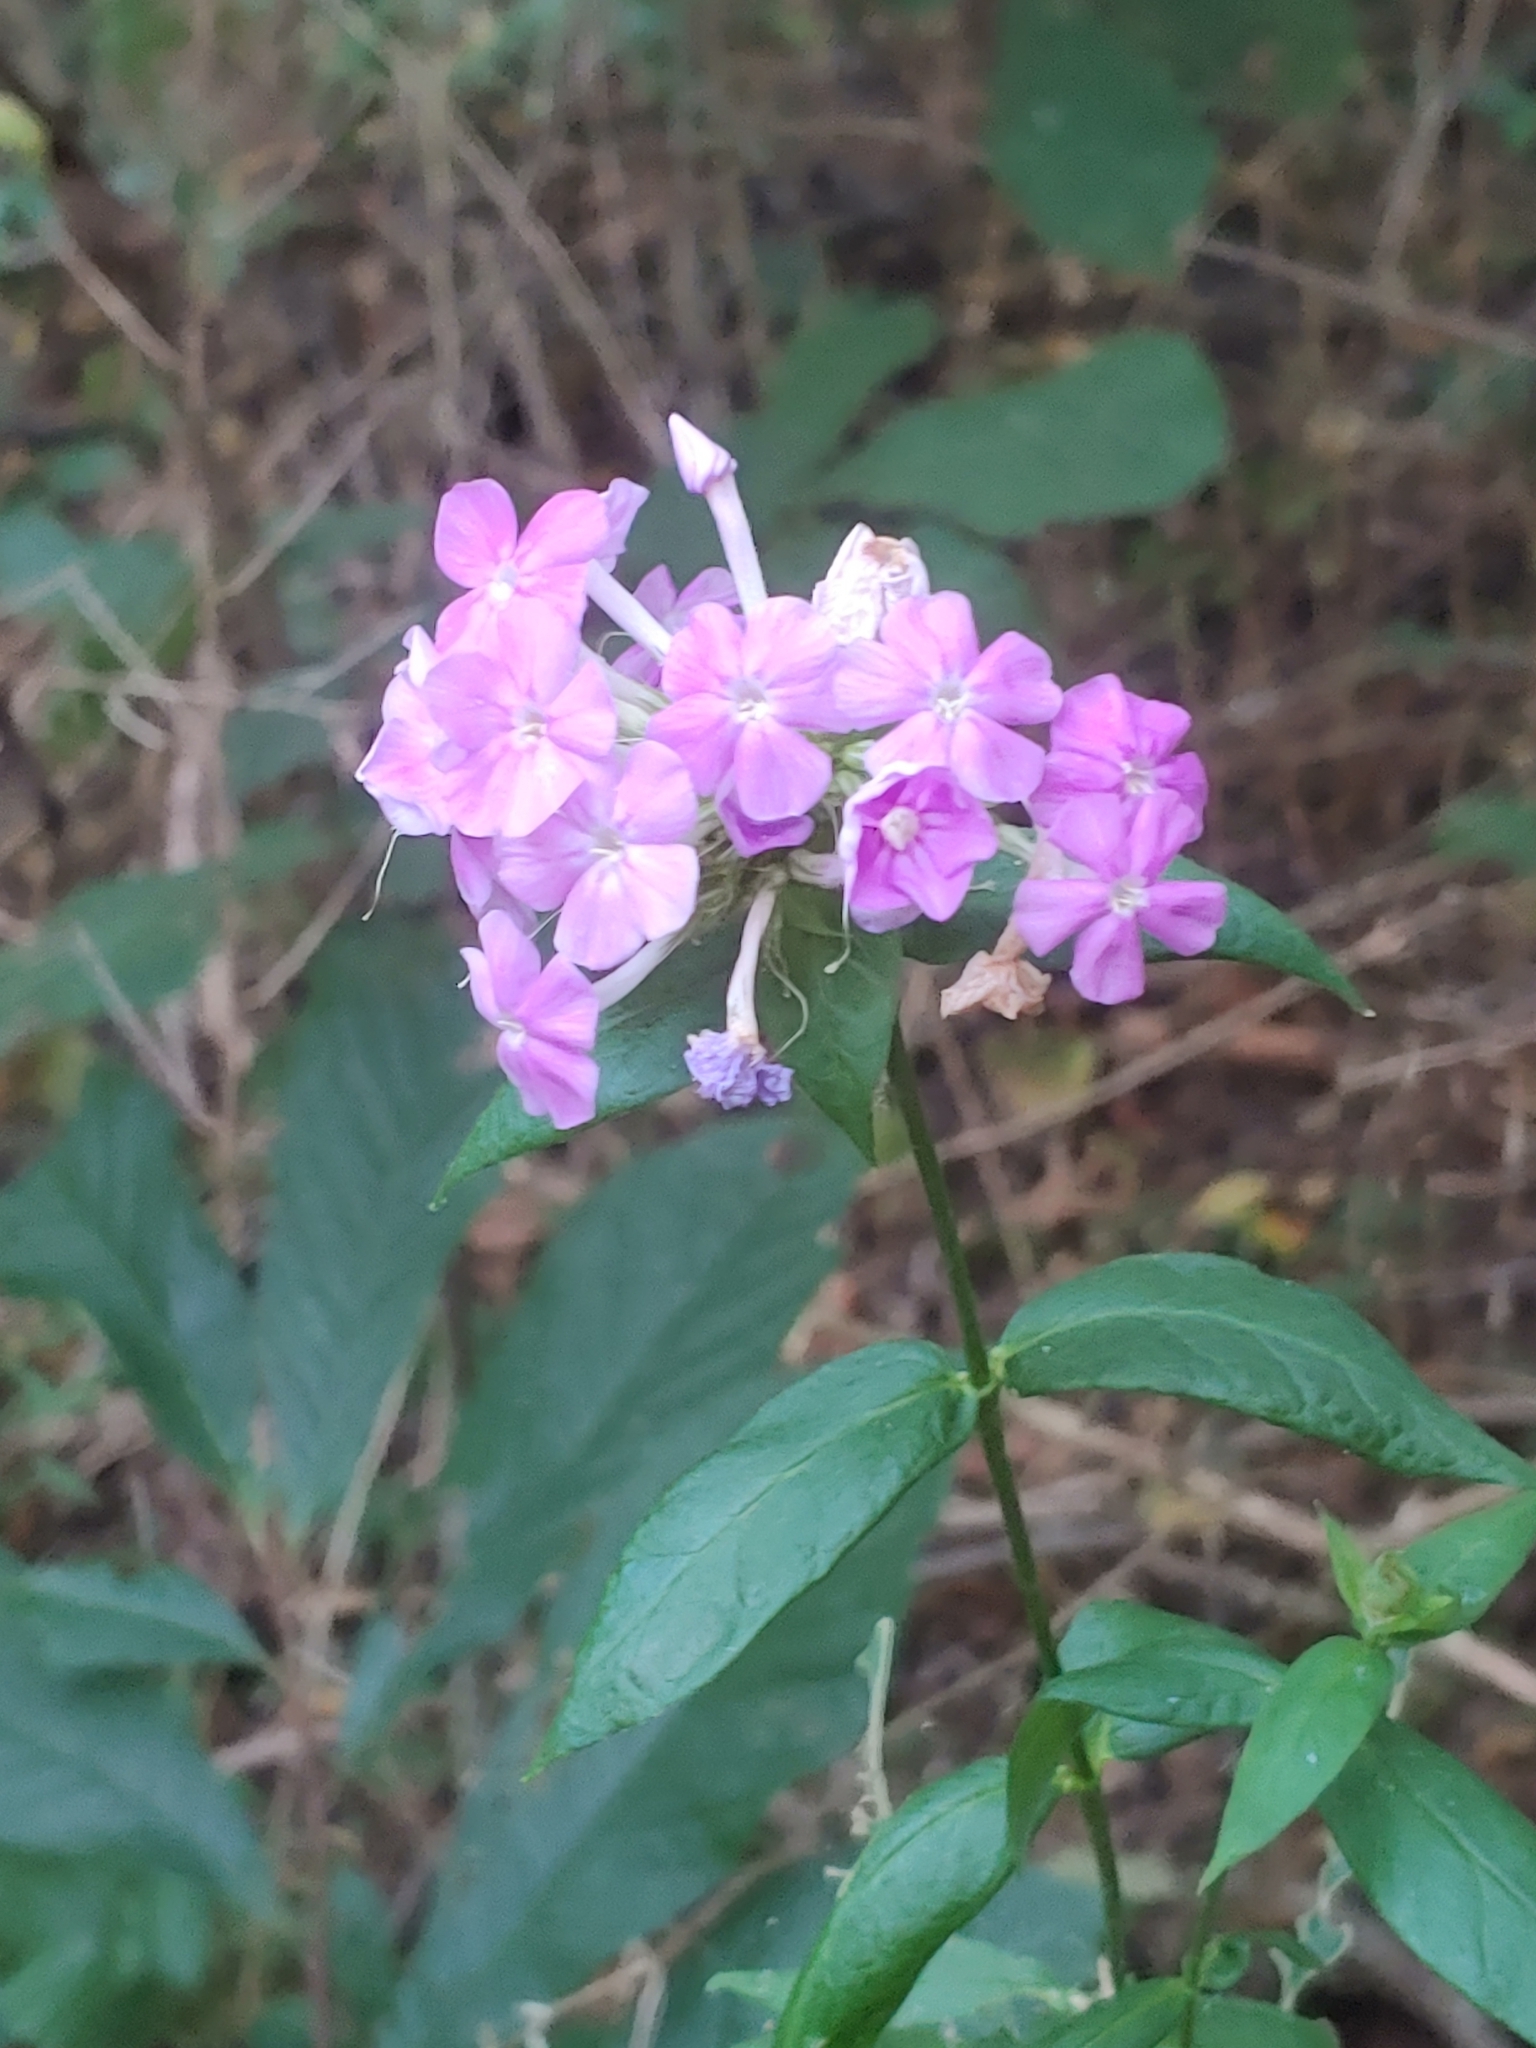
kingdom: Plantae
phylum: Tracheophyta
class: Magnoliopsida
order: Ericales
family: Polemoniaceae
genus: Phlox
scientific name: Phlox paniculata
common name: Fall phlox
